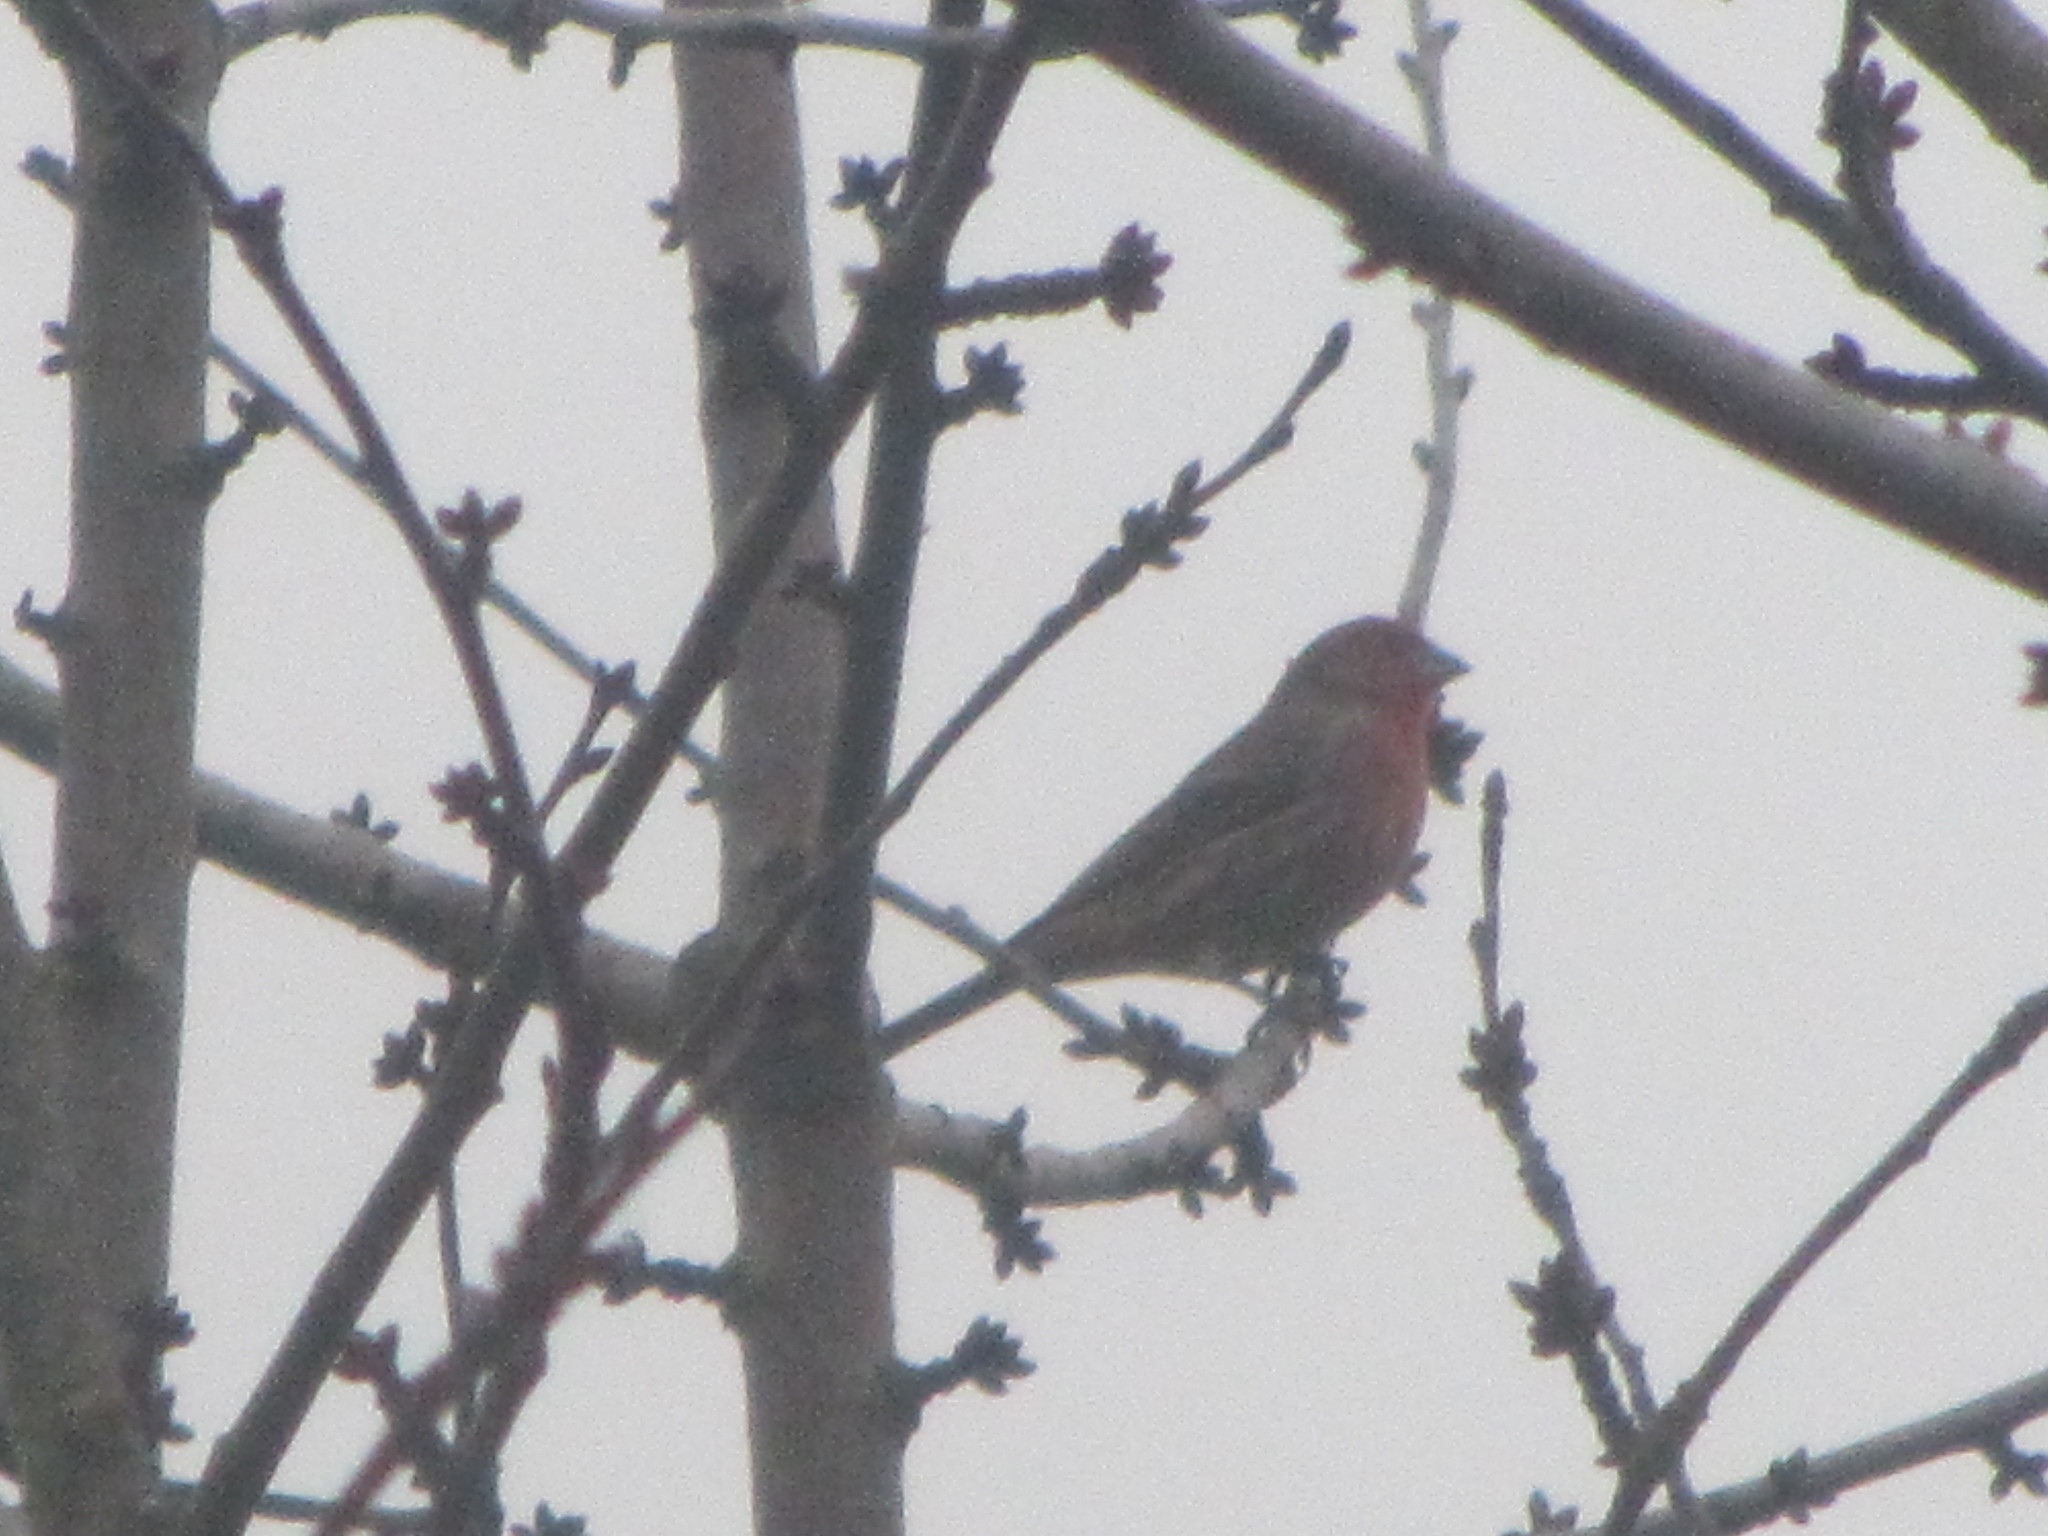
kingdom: Animalia
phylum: Chordata
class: Aves
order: Passeriformes
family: Fringillidae
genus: Haemorhous
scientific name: Haemorhous mexicanus
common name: House finch
